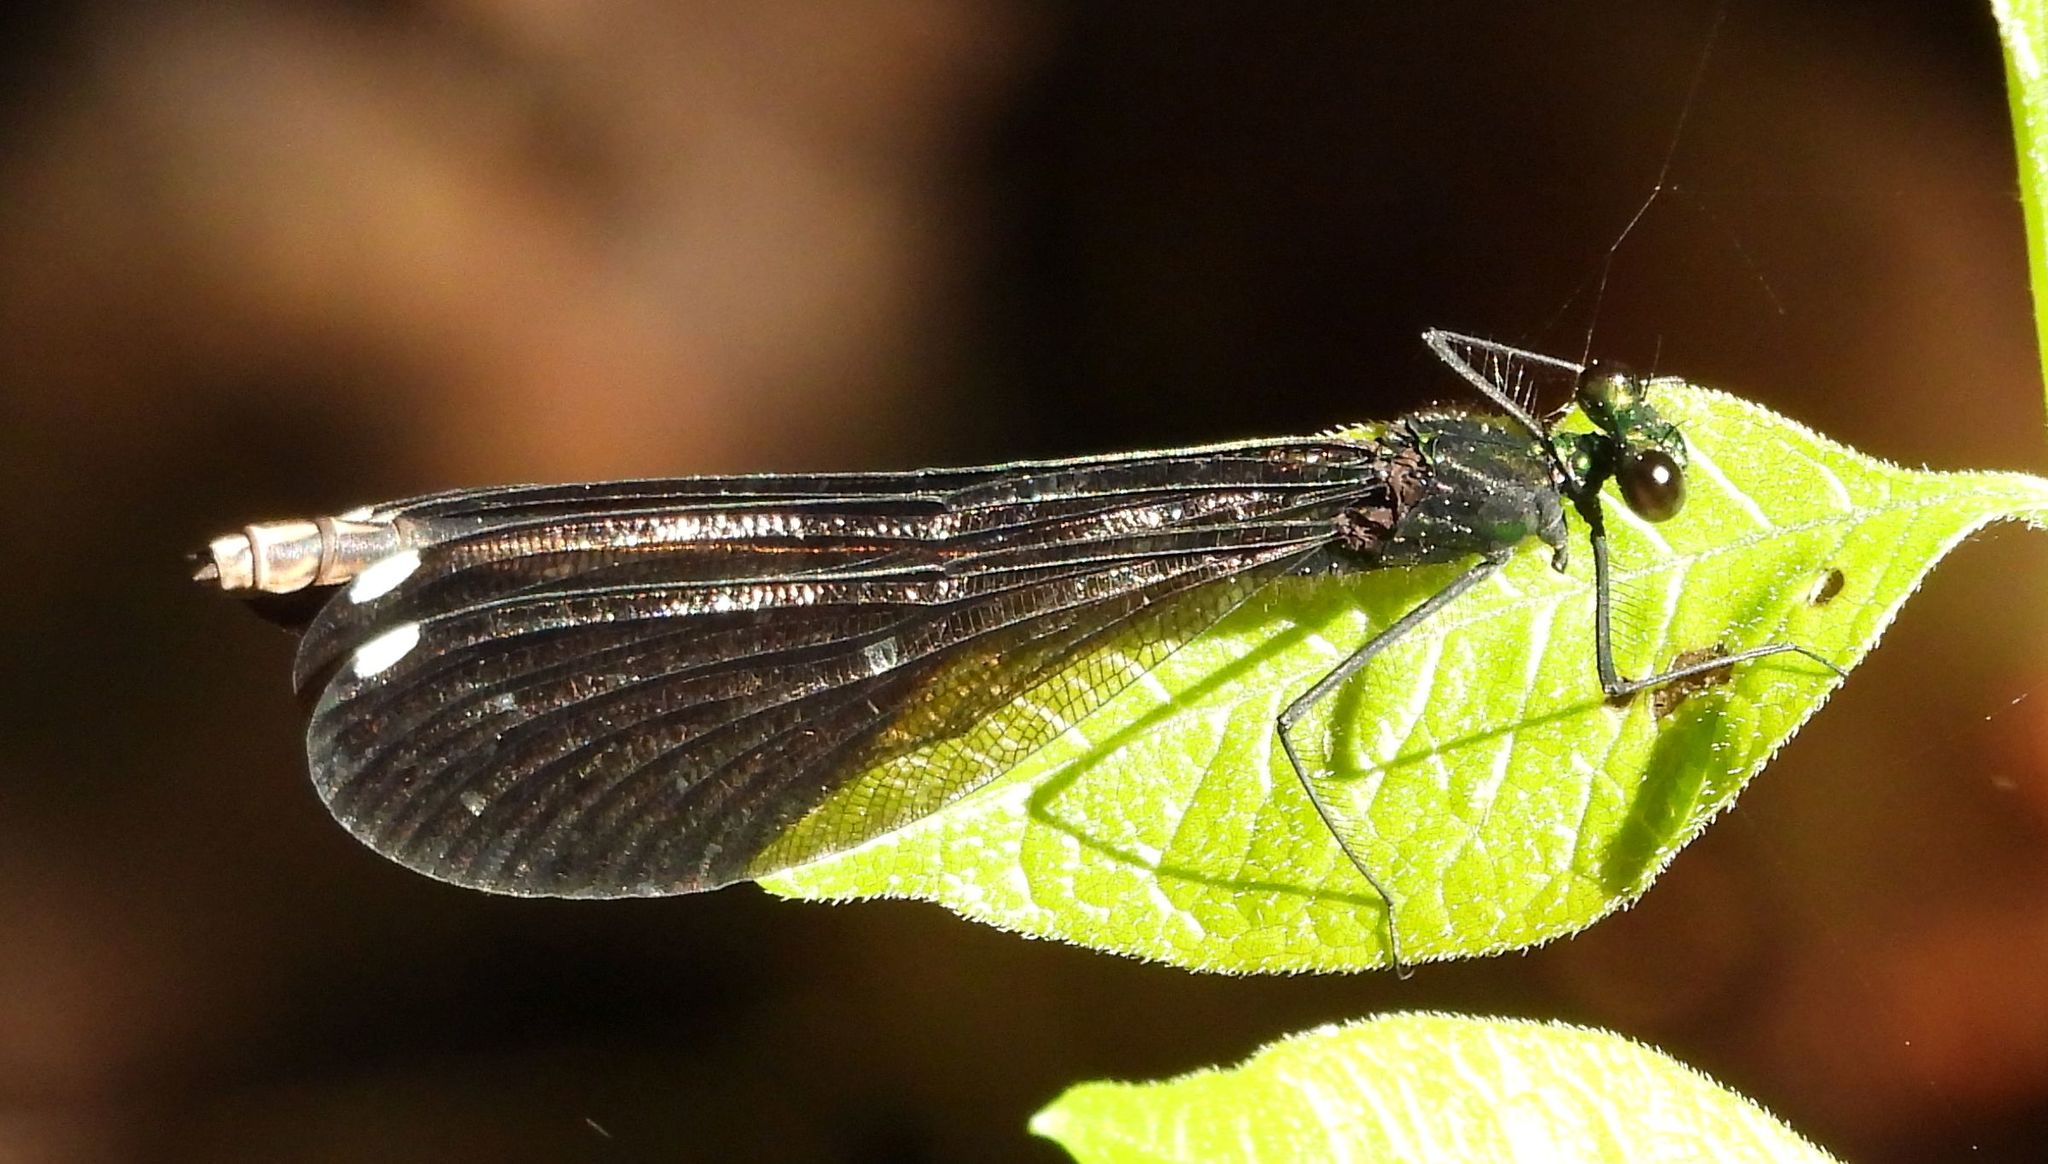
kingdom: Animalia
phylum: Arthropoda
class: Insecta
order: Odonata
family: Calopterygidae
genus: Calopteryx
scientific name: Calopteryx maculata
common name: Ebony jewelwing
